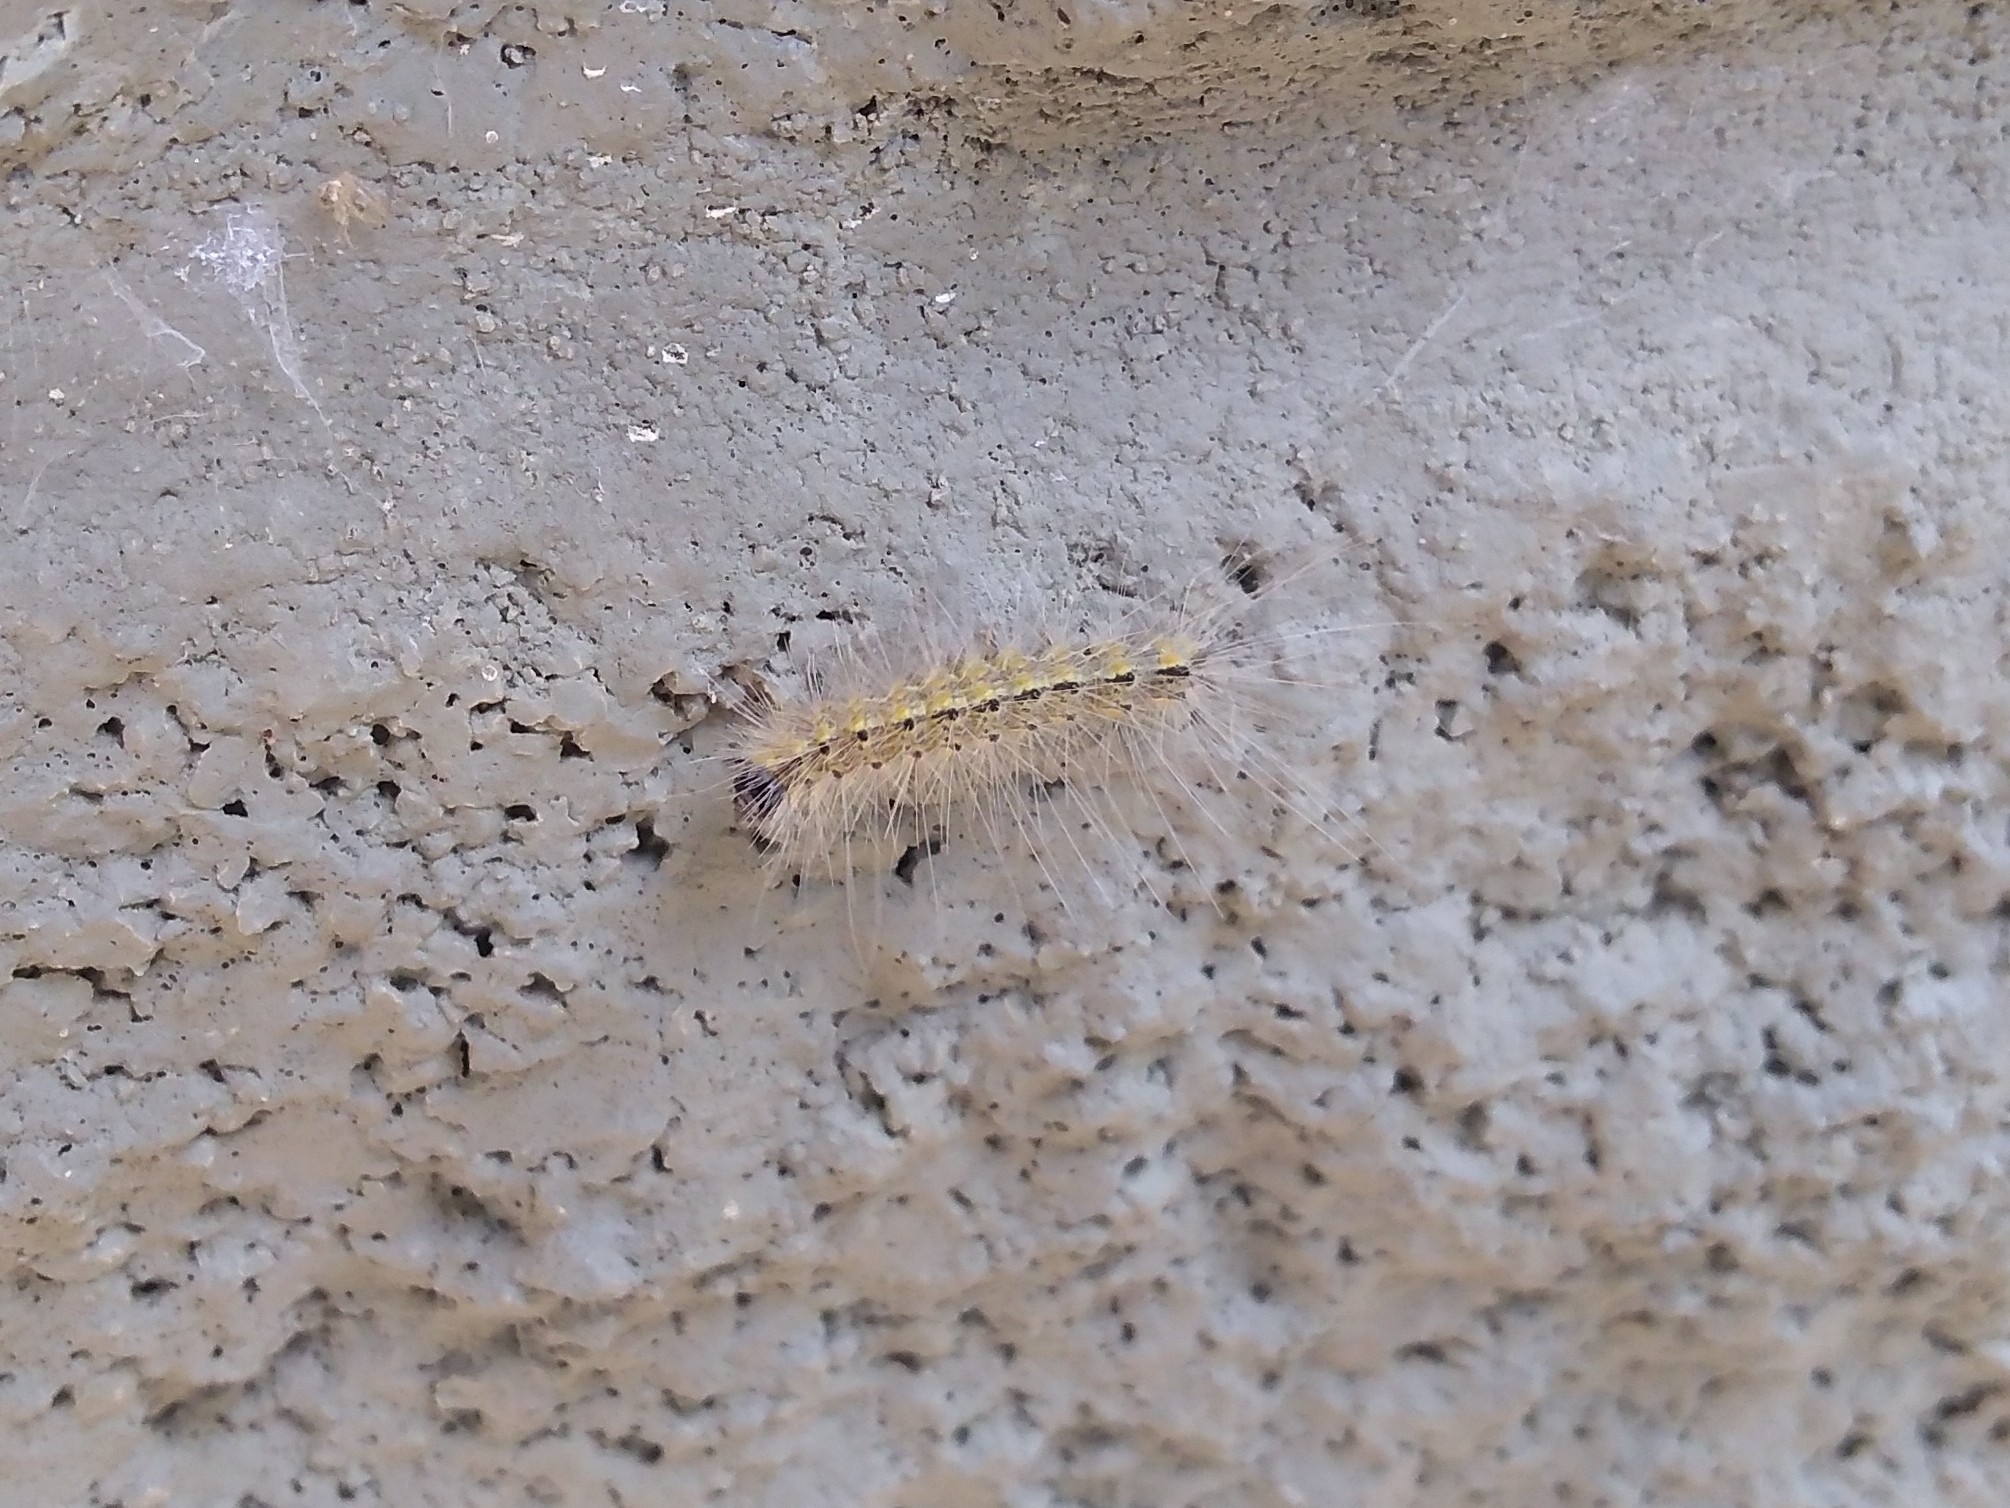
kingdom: Animalia
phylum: Arthropoda
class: Insecta
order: Lepidoptera
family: Erebidae
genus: Hyphantria
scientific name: Hyphantria cunea
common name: American white moth
